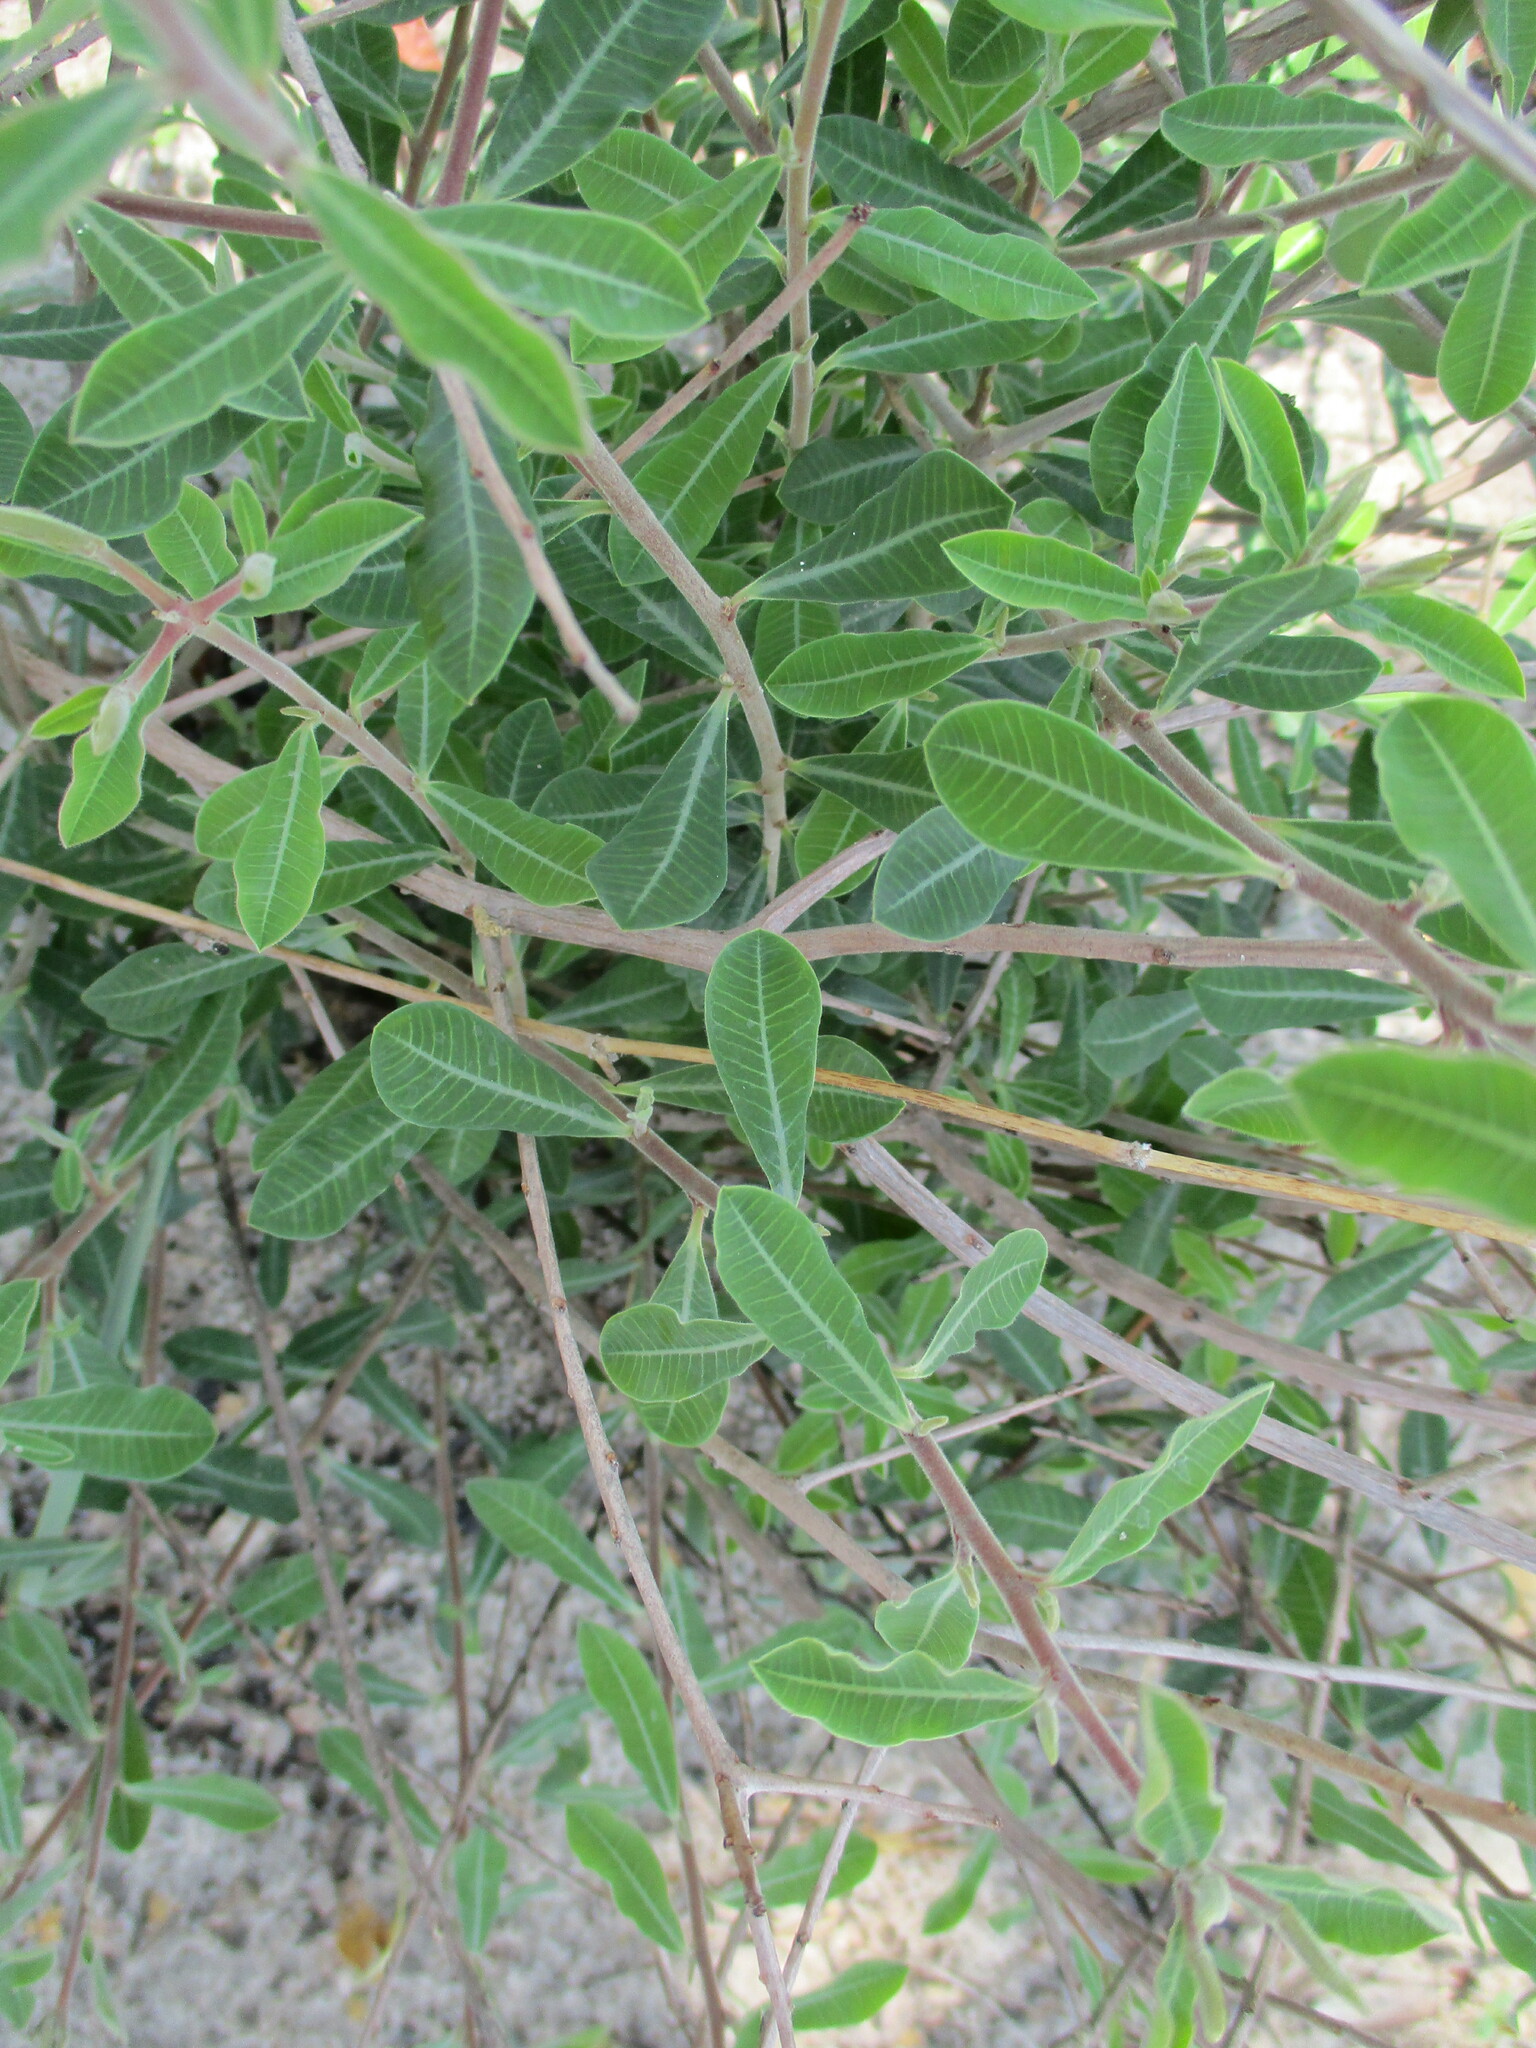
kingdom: Plantae
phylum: Tracheophyta
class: Magnoliopsida
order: Malpighiales
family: Euphorbiaceae
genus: Euphorbia
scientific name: Euphorbia matabelensis
